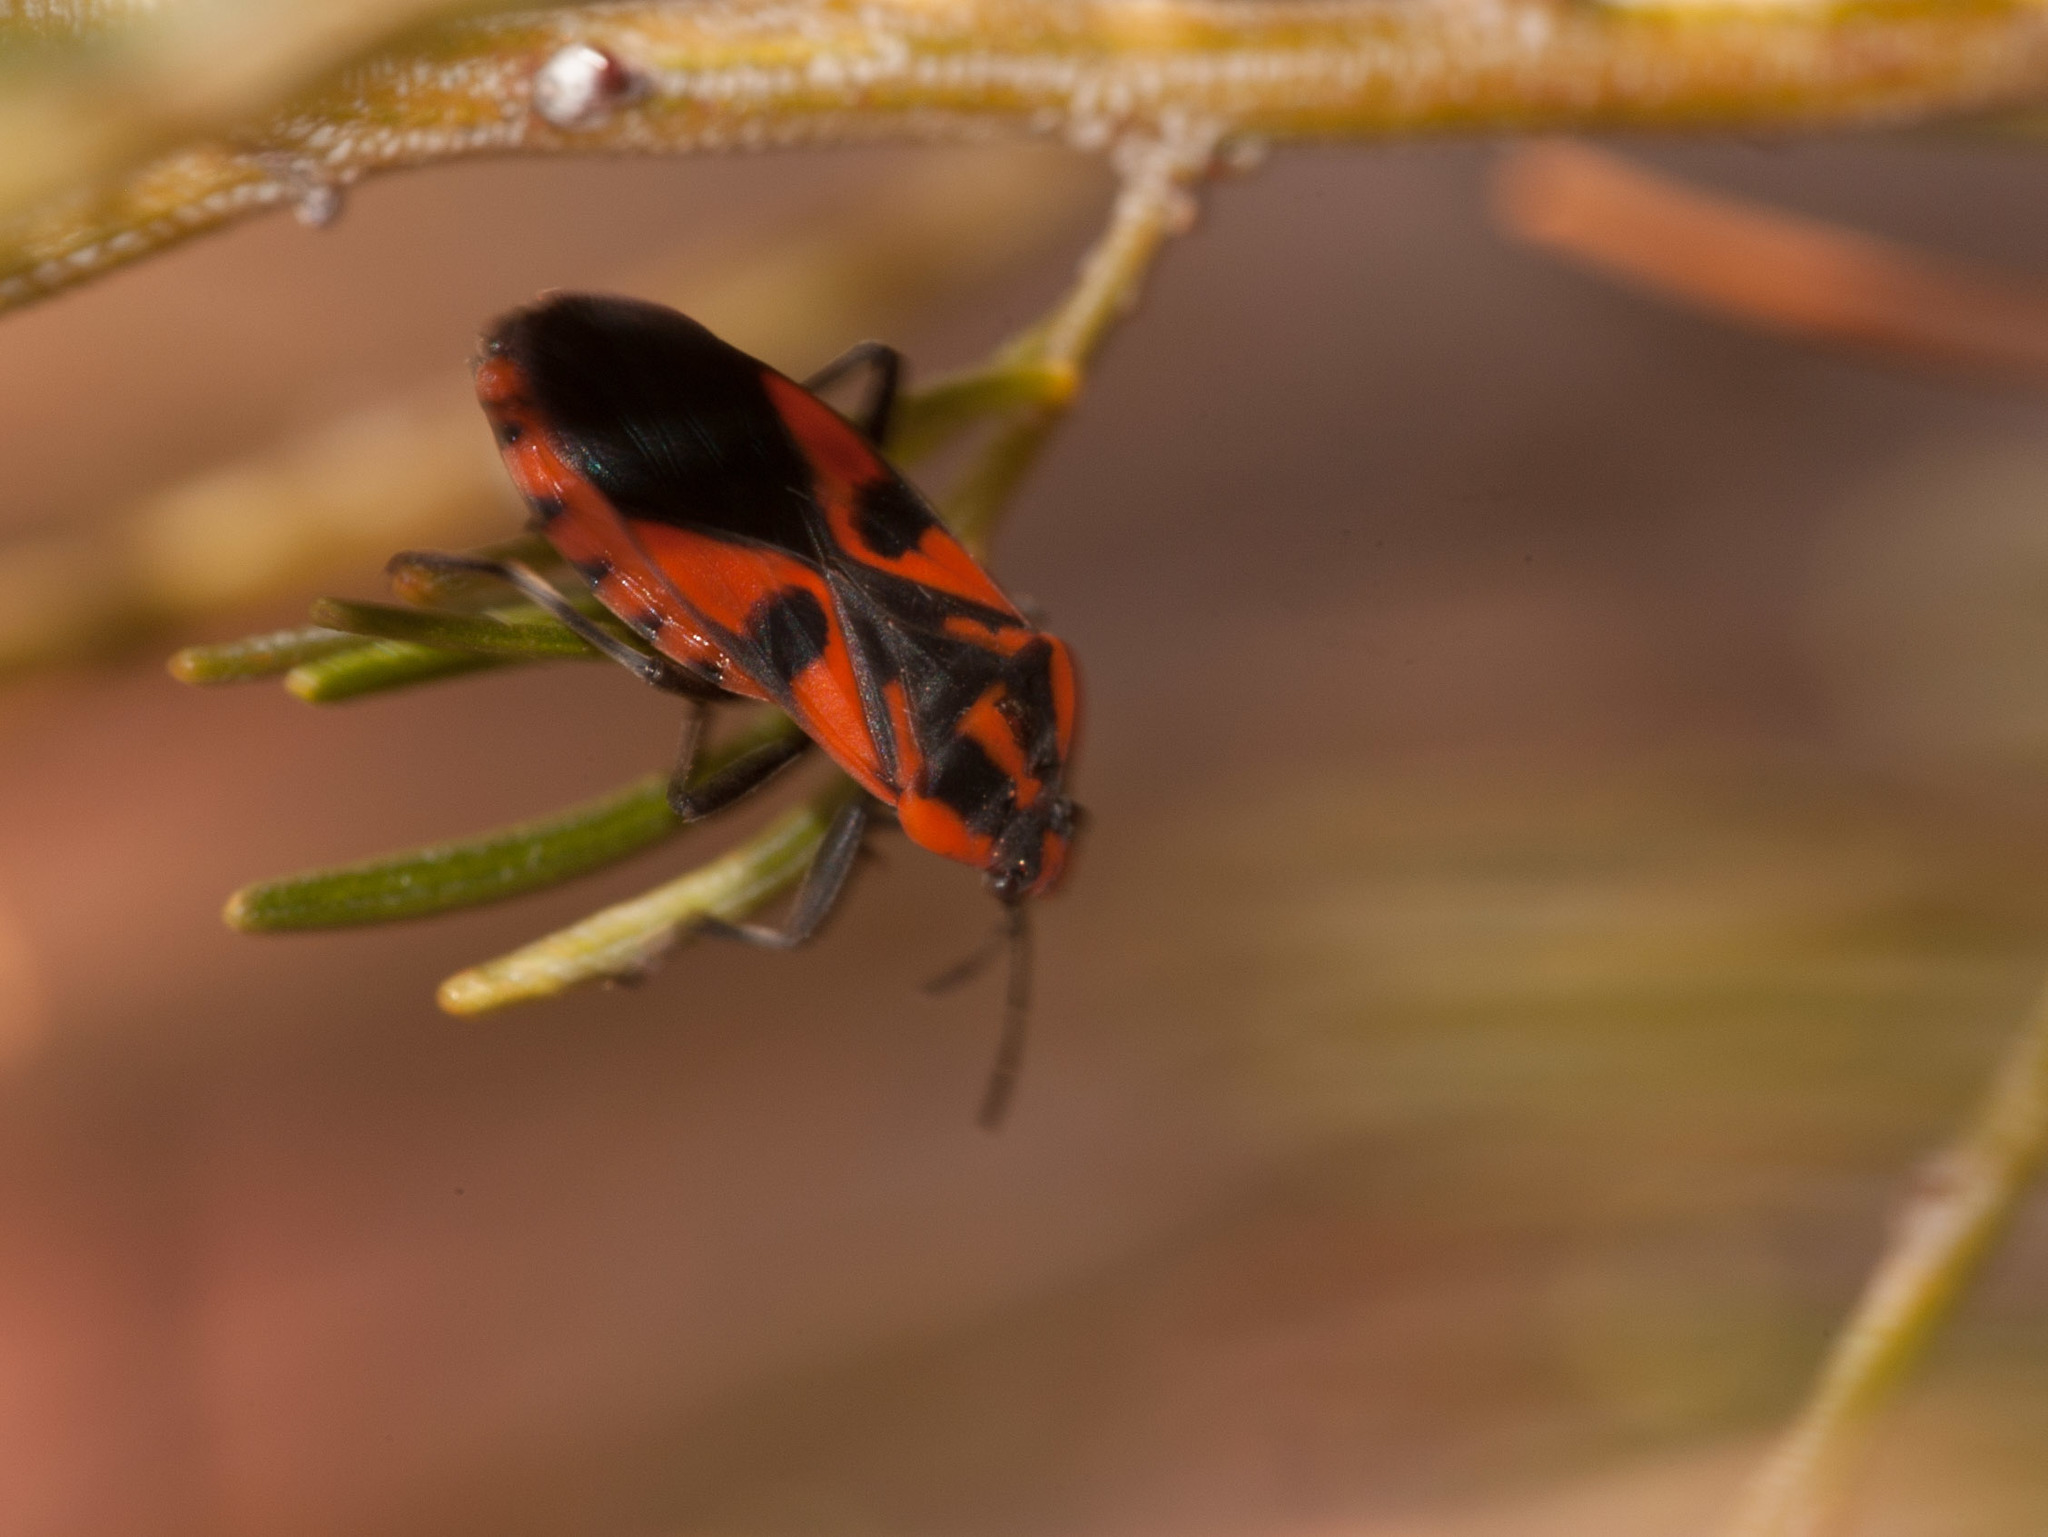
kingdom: Animalia
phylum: Arthropoda
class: Insecta
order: Hemiptera
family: Lygaeidae
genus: Spilostethus
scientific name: Spilostethus pacificus
